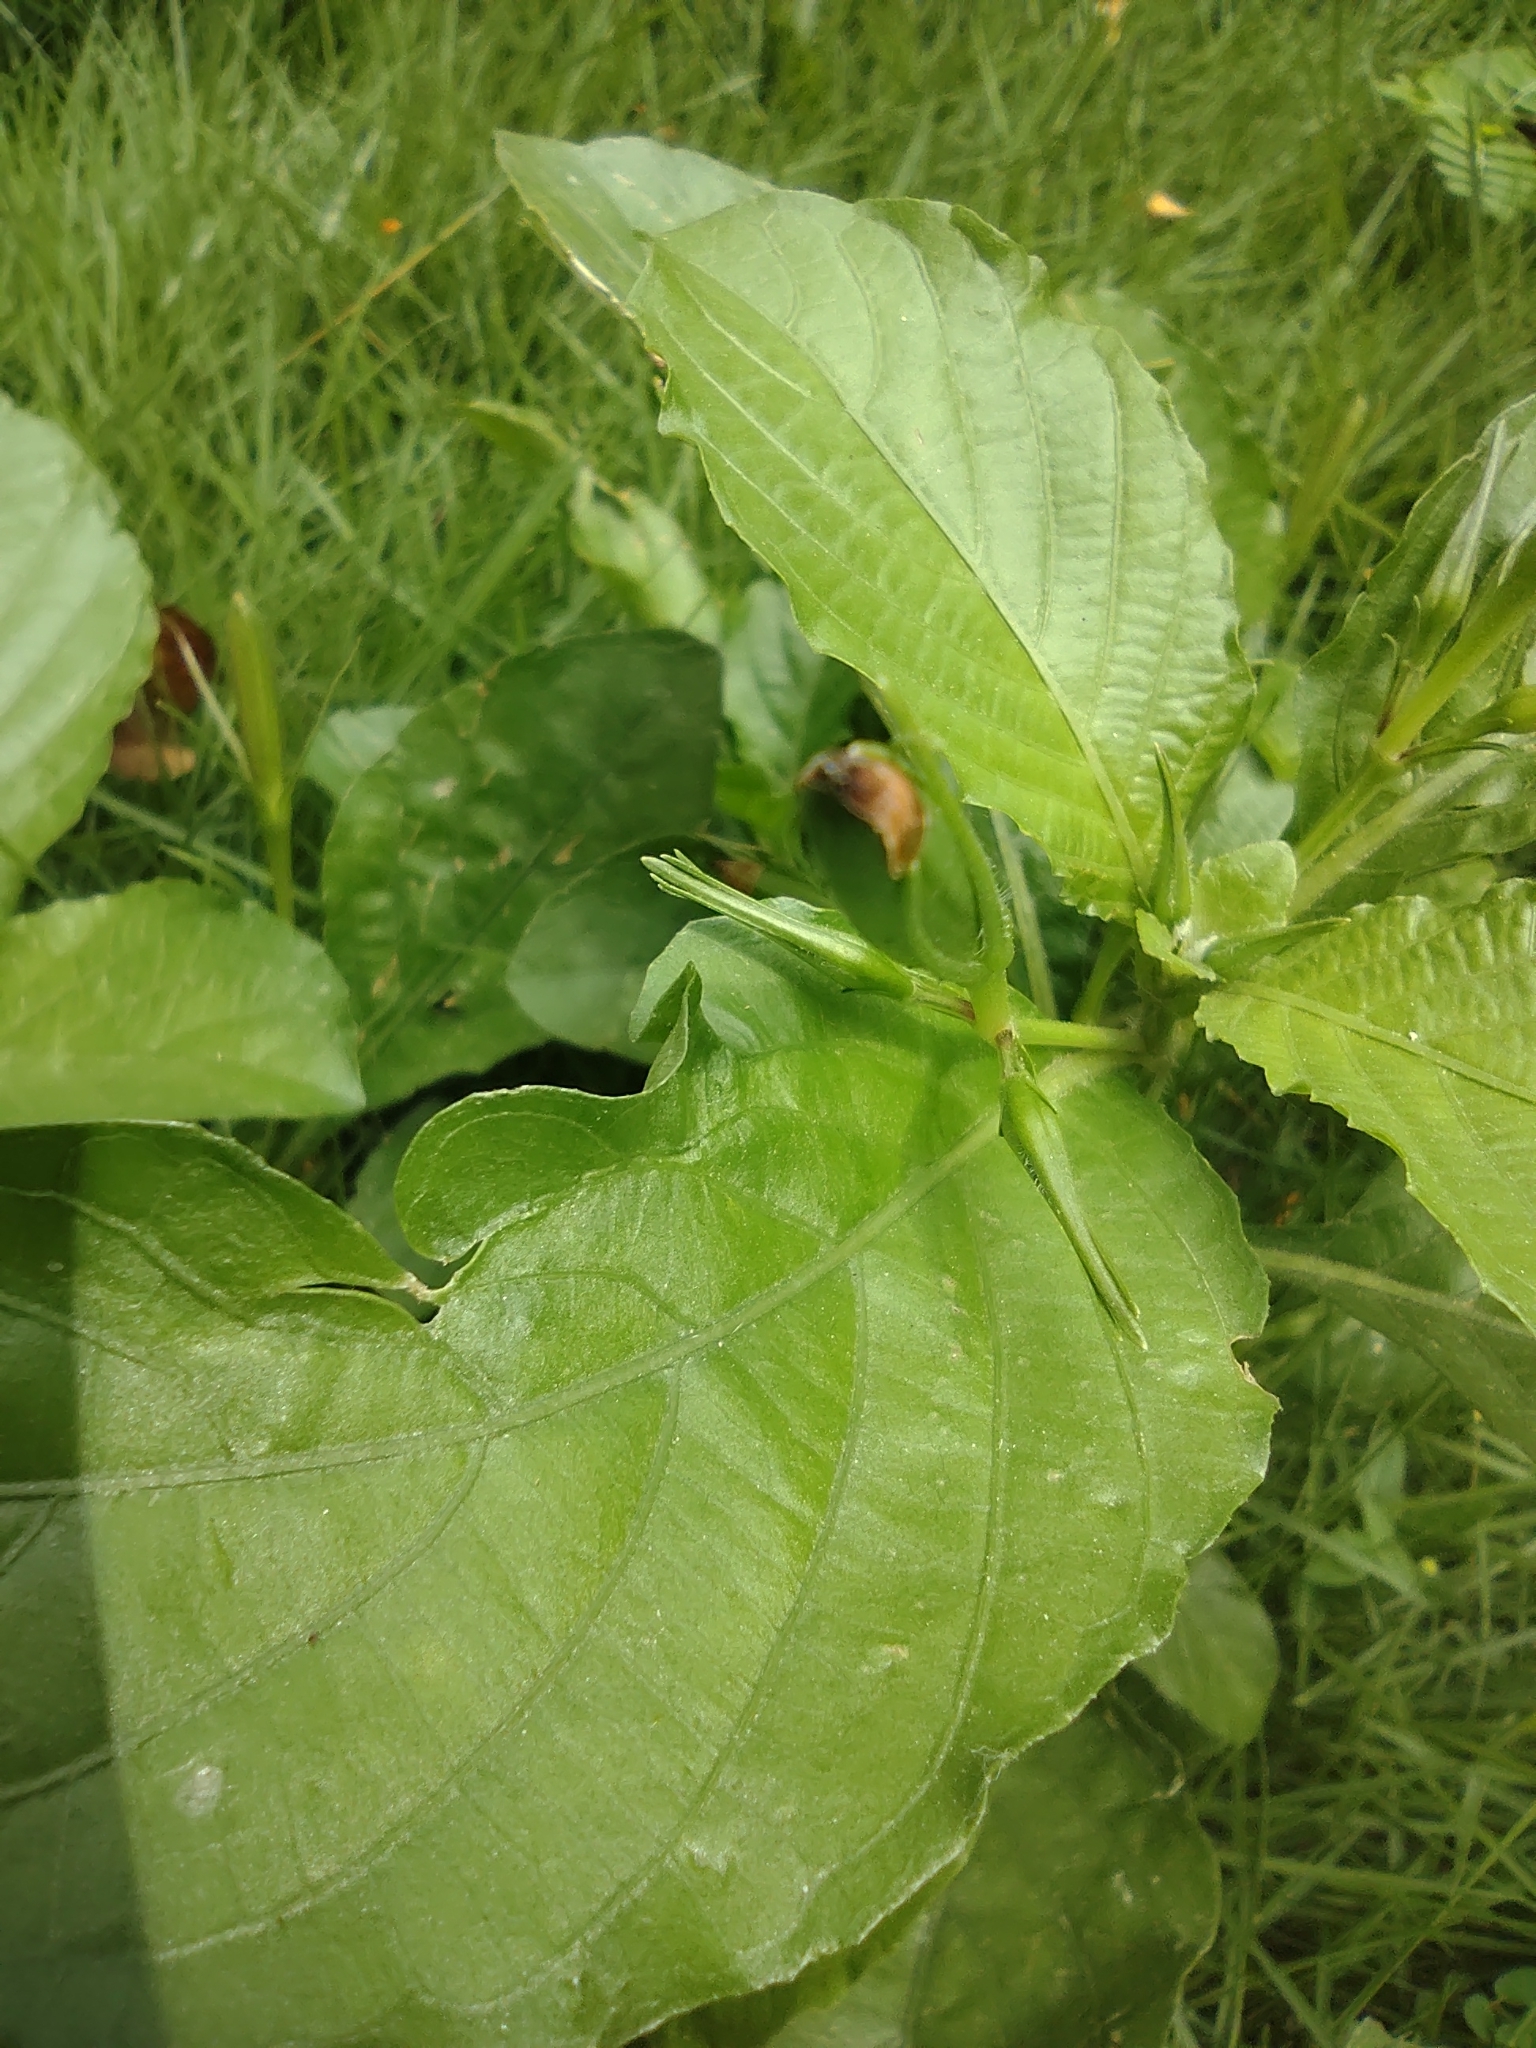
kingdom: Plantae
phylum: Tracheophyta
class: Magnoliopsida
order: Lamiales
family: Acanthaceae
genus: Ruellia
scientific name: Ruellia tuberosa
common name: Devil's bit
